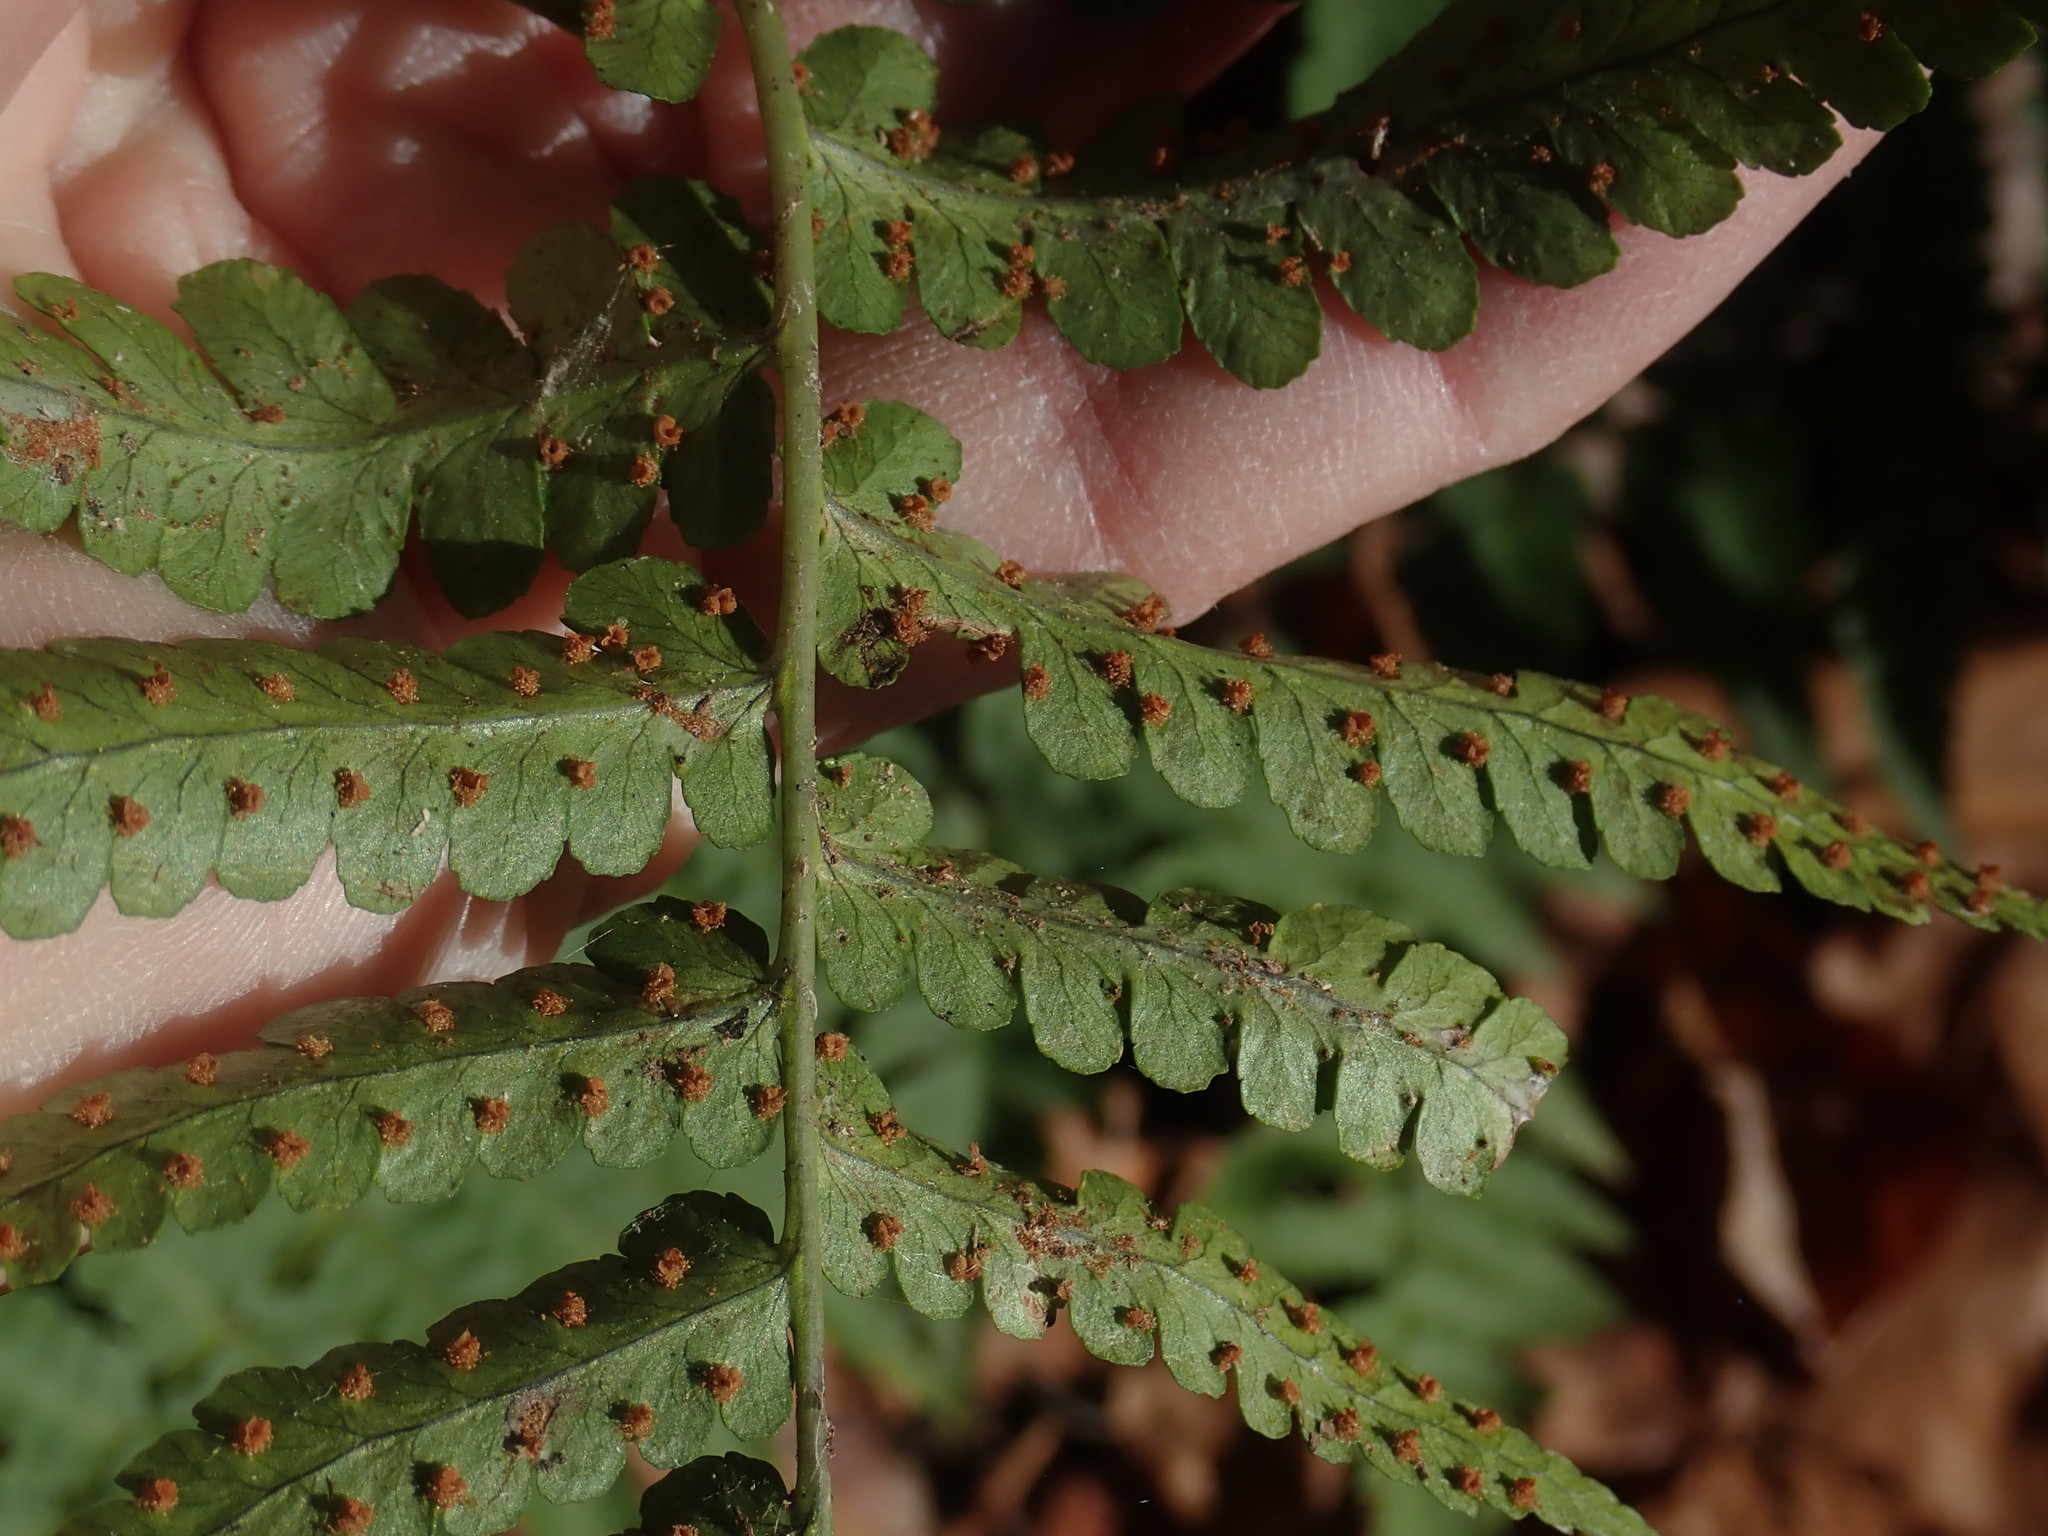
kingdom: Plantae
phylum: Tracheophyta
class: Polypodiopsida
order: Polypodiales
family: Dryopteridaceae
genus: Dryopteris
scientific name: Dryopteris marginalis
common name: Marginal wood fern
